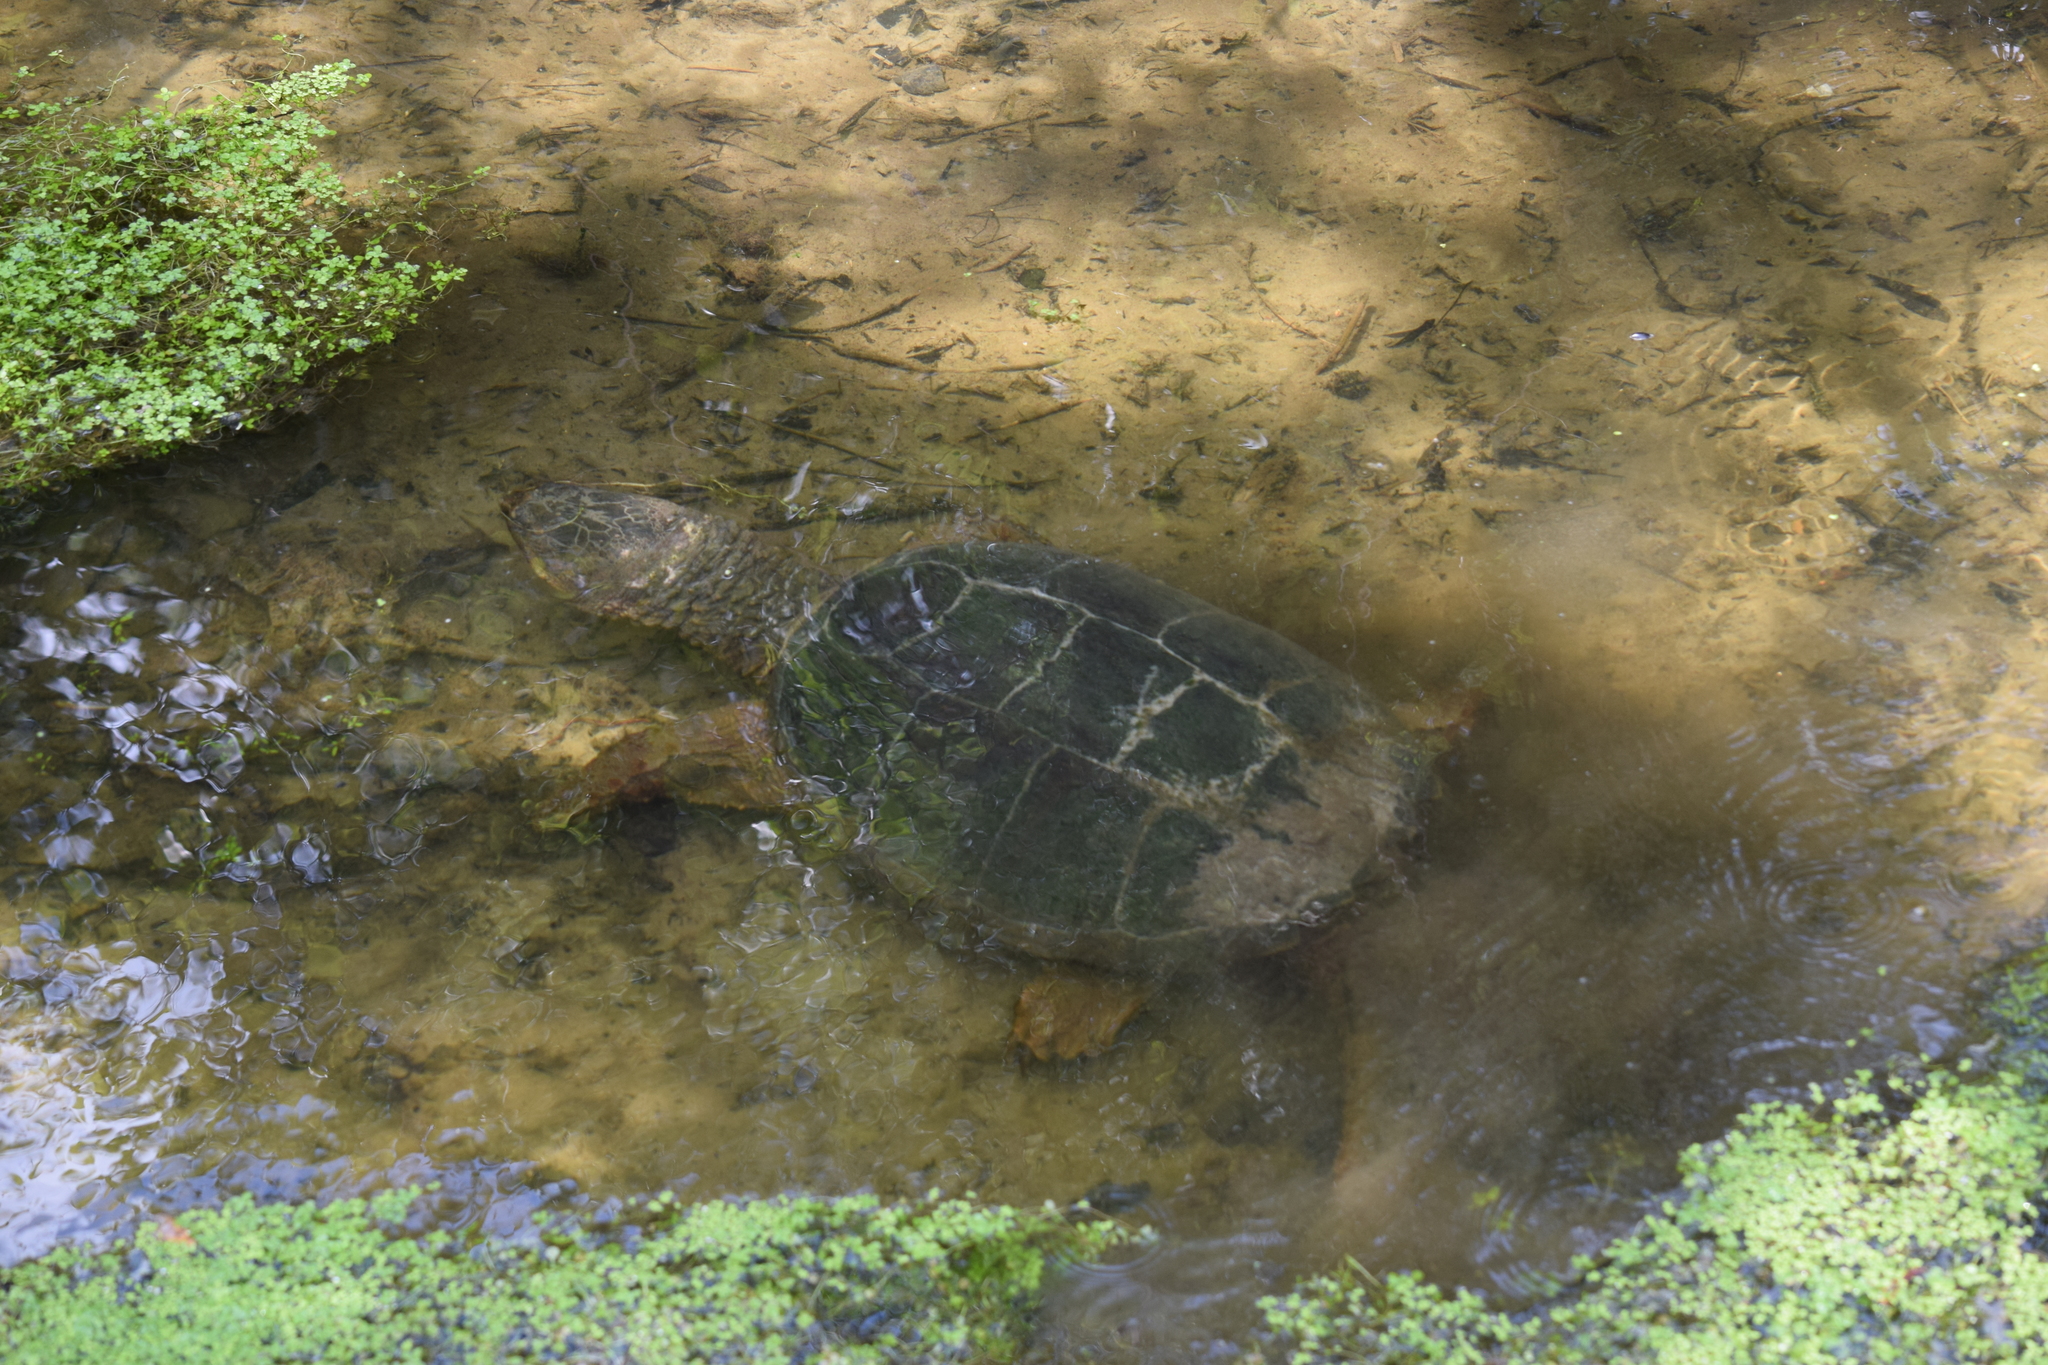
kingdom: Animalia
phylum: Chordata
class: Testudines
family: Chelydridae
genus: Chelydra
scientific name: Chelydra serpentina
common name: Common snapping turtle
